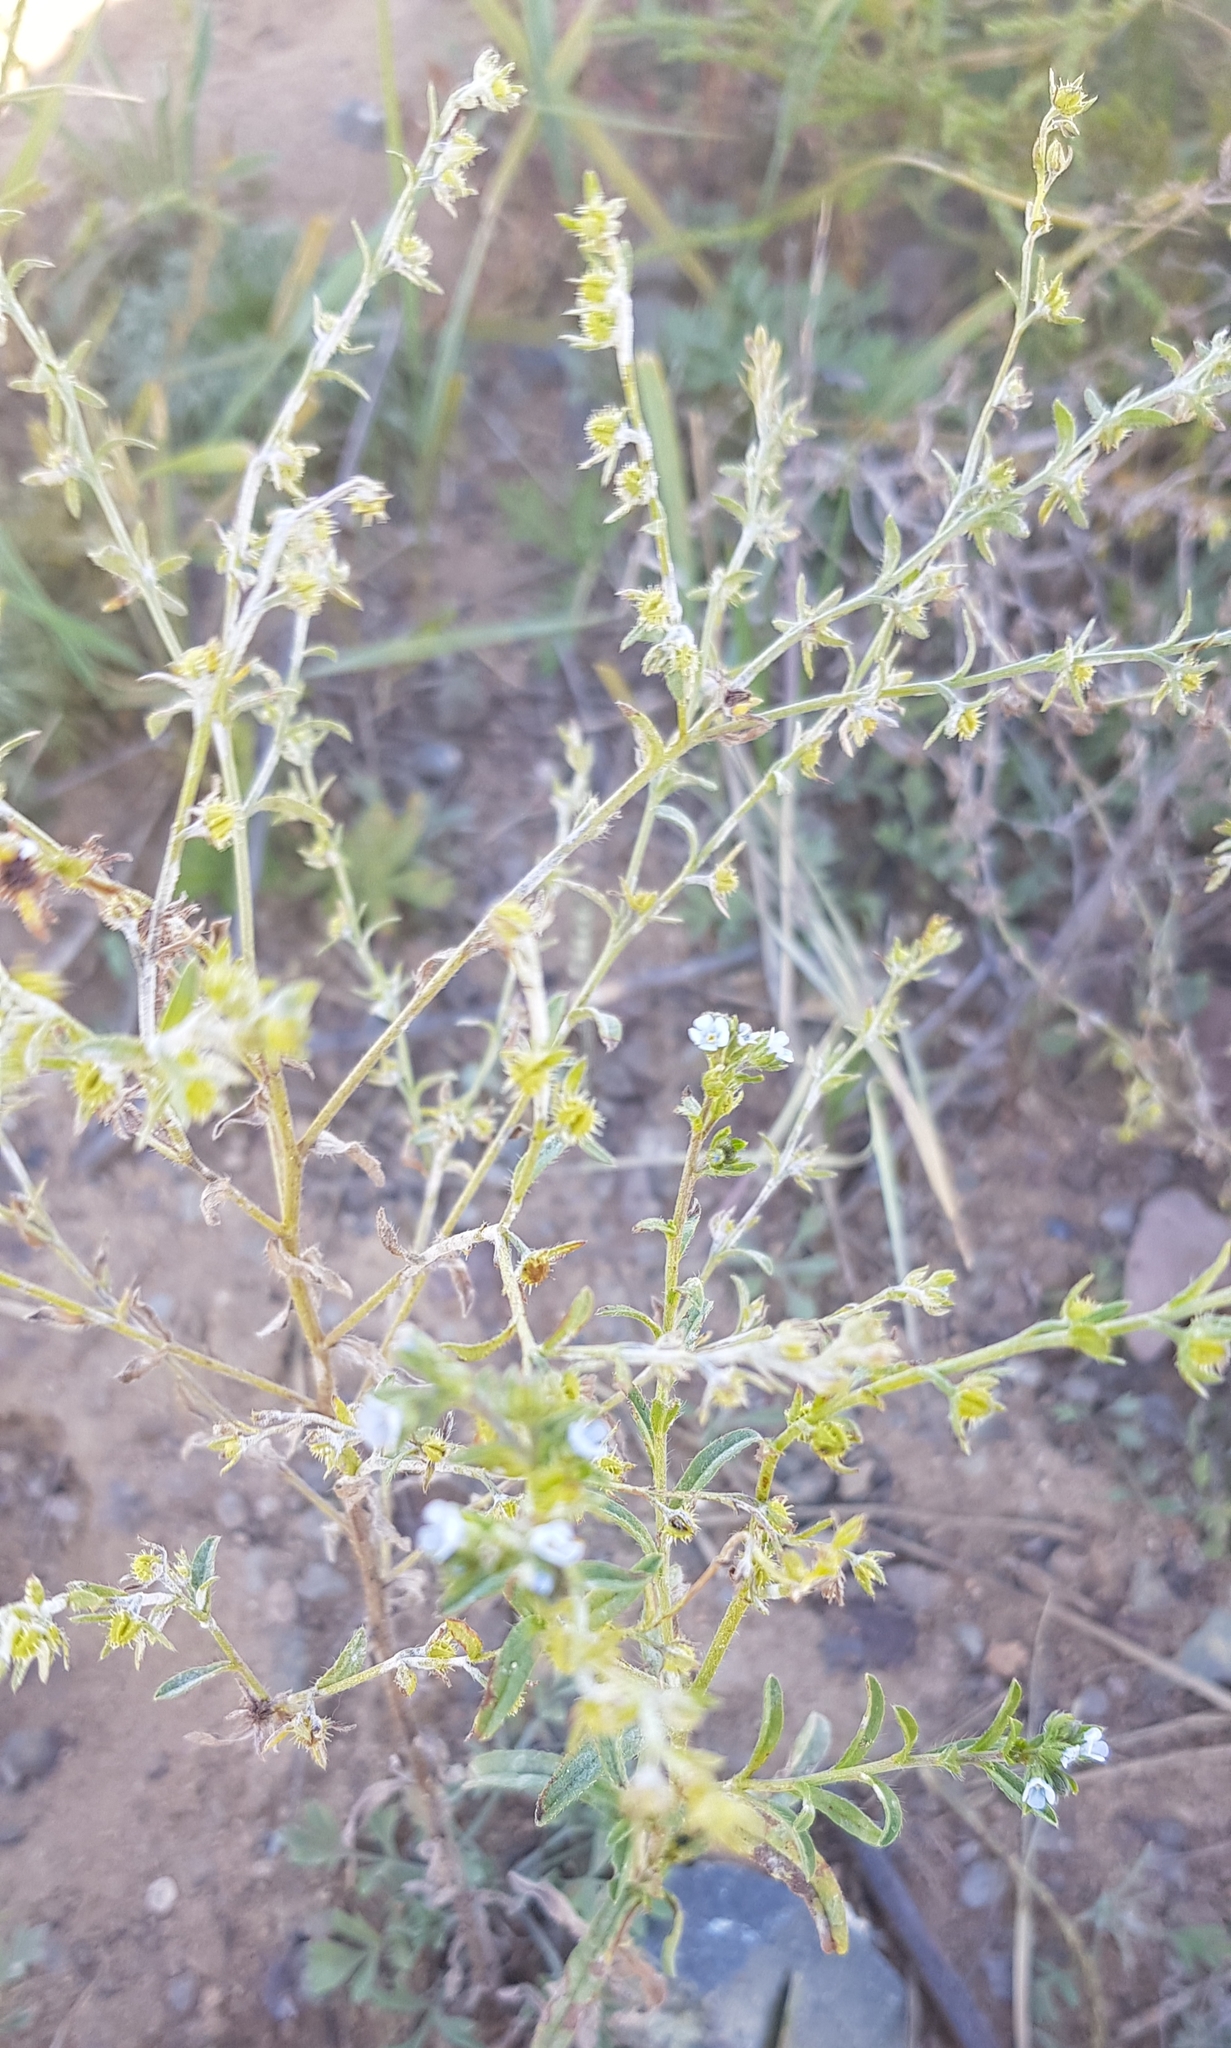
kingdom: Plantae
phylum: Tracheophyta
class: Magnoliopsida
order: Boraginales
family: Boraginaceae
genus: Lappula
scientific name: Lappula squarrosa
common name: European stickseed
